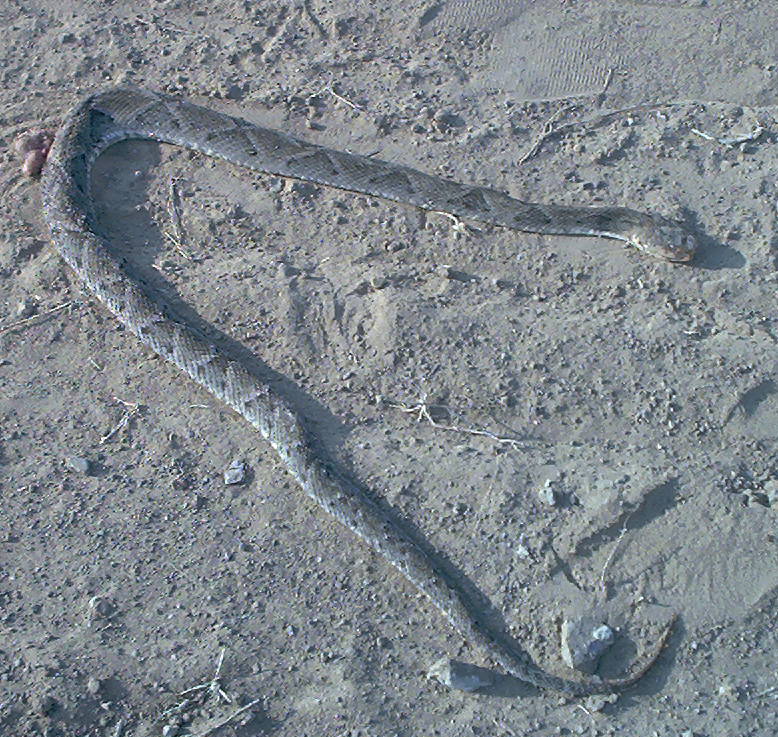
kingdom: Animalia
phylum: Chordata
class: Squamata
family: Viperidae
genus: Bothrops
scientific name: Bothrops moojeni
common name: Brazilian lancehead
